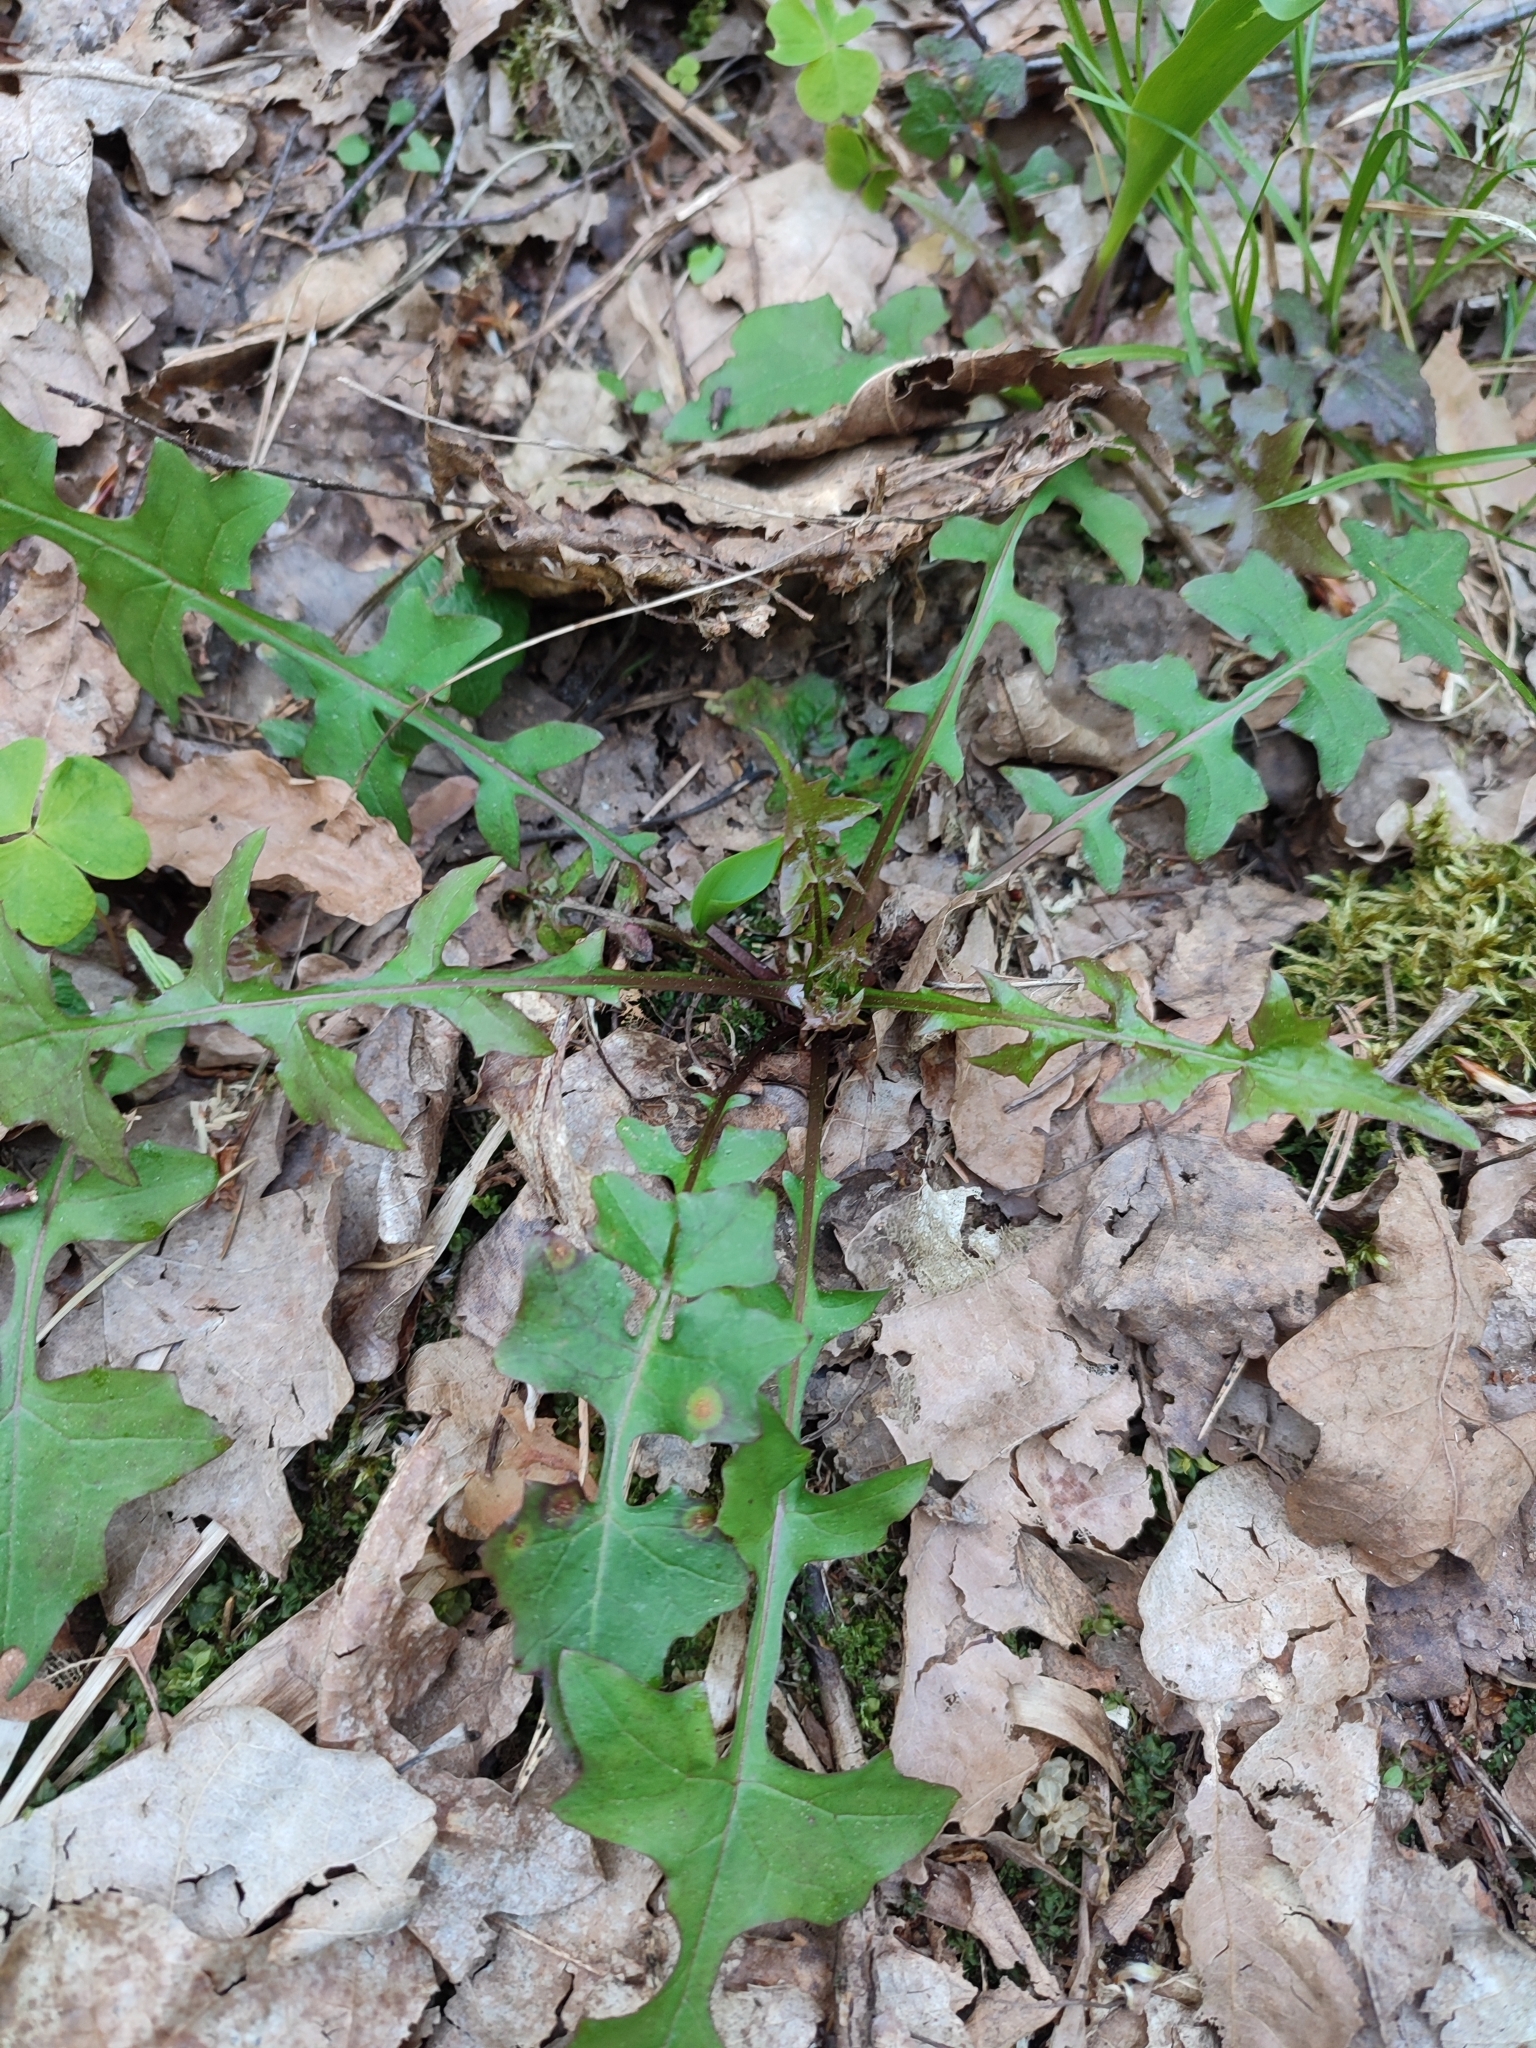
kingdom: Plantae
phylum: Tracheophyta
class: Magnoliopsida
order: Asterales
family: Asteraceae
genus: Mycelis
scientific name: Mycelis muralis
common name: Wall lettuce
